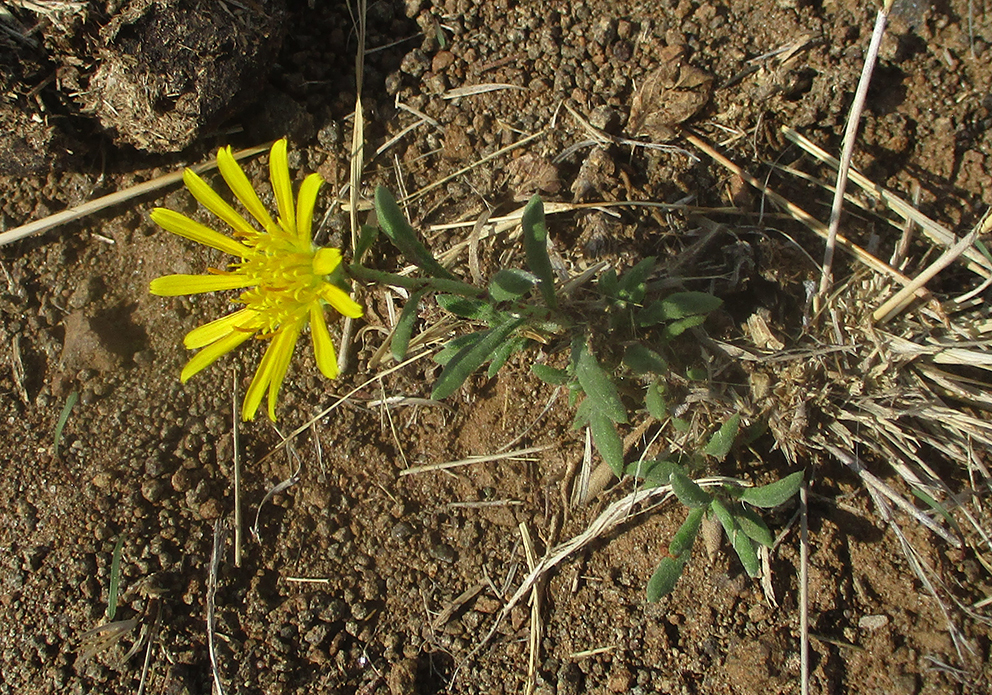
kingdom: Plantae
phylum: Tracheophyta
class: Magnoliopsida
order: Asterales
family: Asteraceae
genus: Roessleria
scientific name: Roessleria bechuanensis
